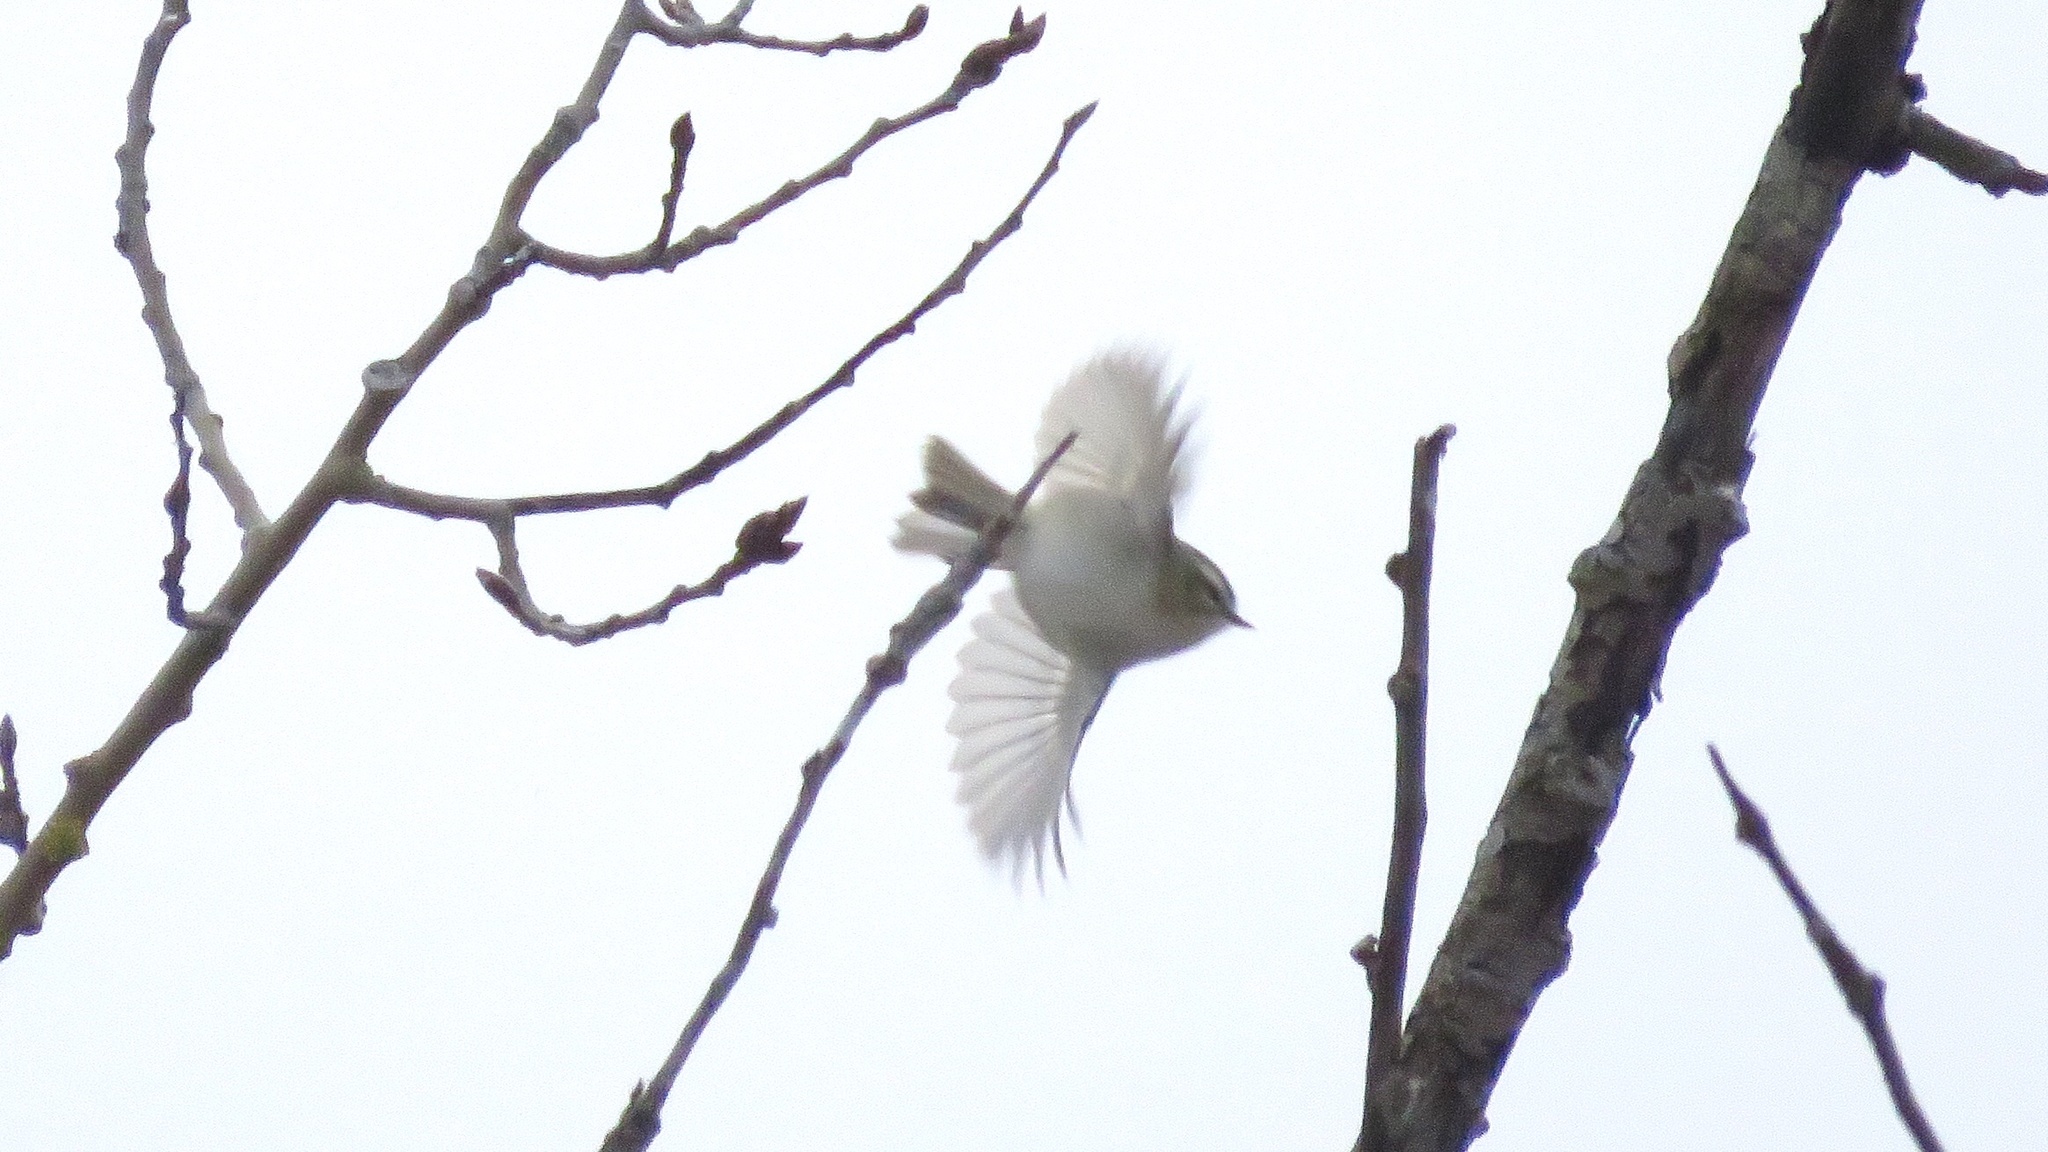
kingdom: Animalia
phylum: Chordata
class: Aves
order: Passeriformes
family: Regulidae
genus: Regulus
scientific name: Regulus satrapa
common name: Golden-crowned kinglet
